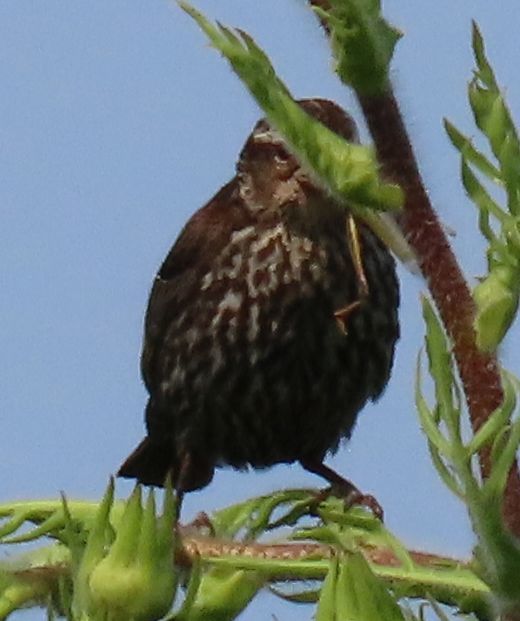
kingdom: Animalia
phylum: Chordata
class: Aves
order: Passeriformes
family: Icteridae
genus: Agelaius
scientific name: Agelaius phoeniceus
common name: Red-winged blackbird
